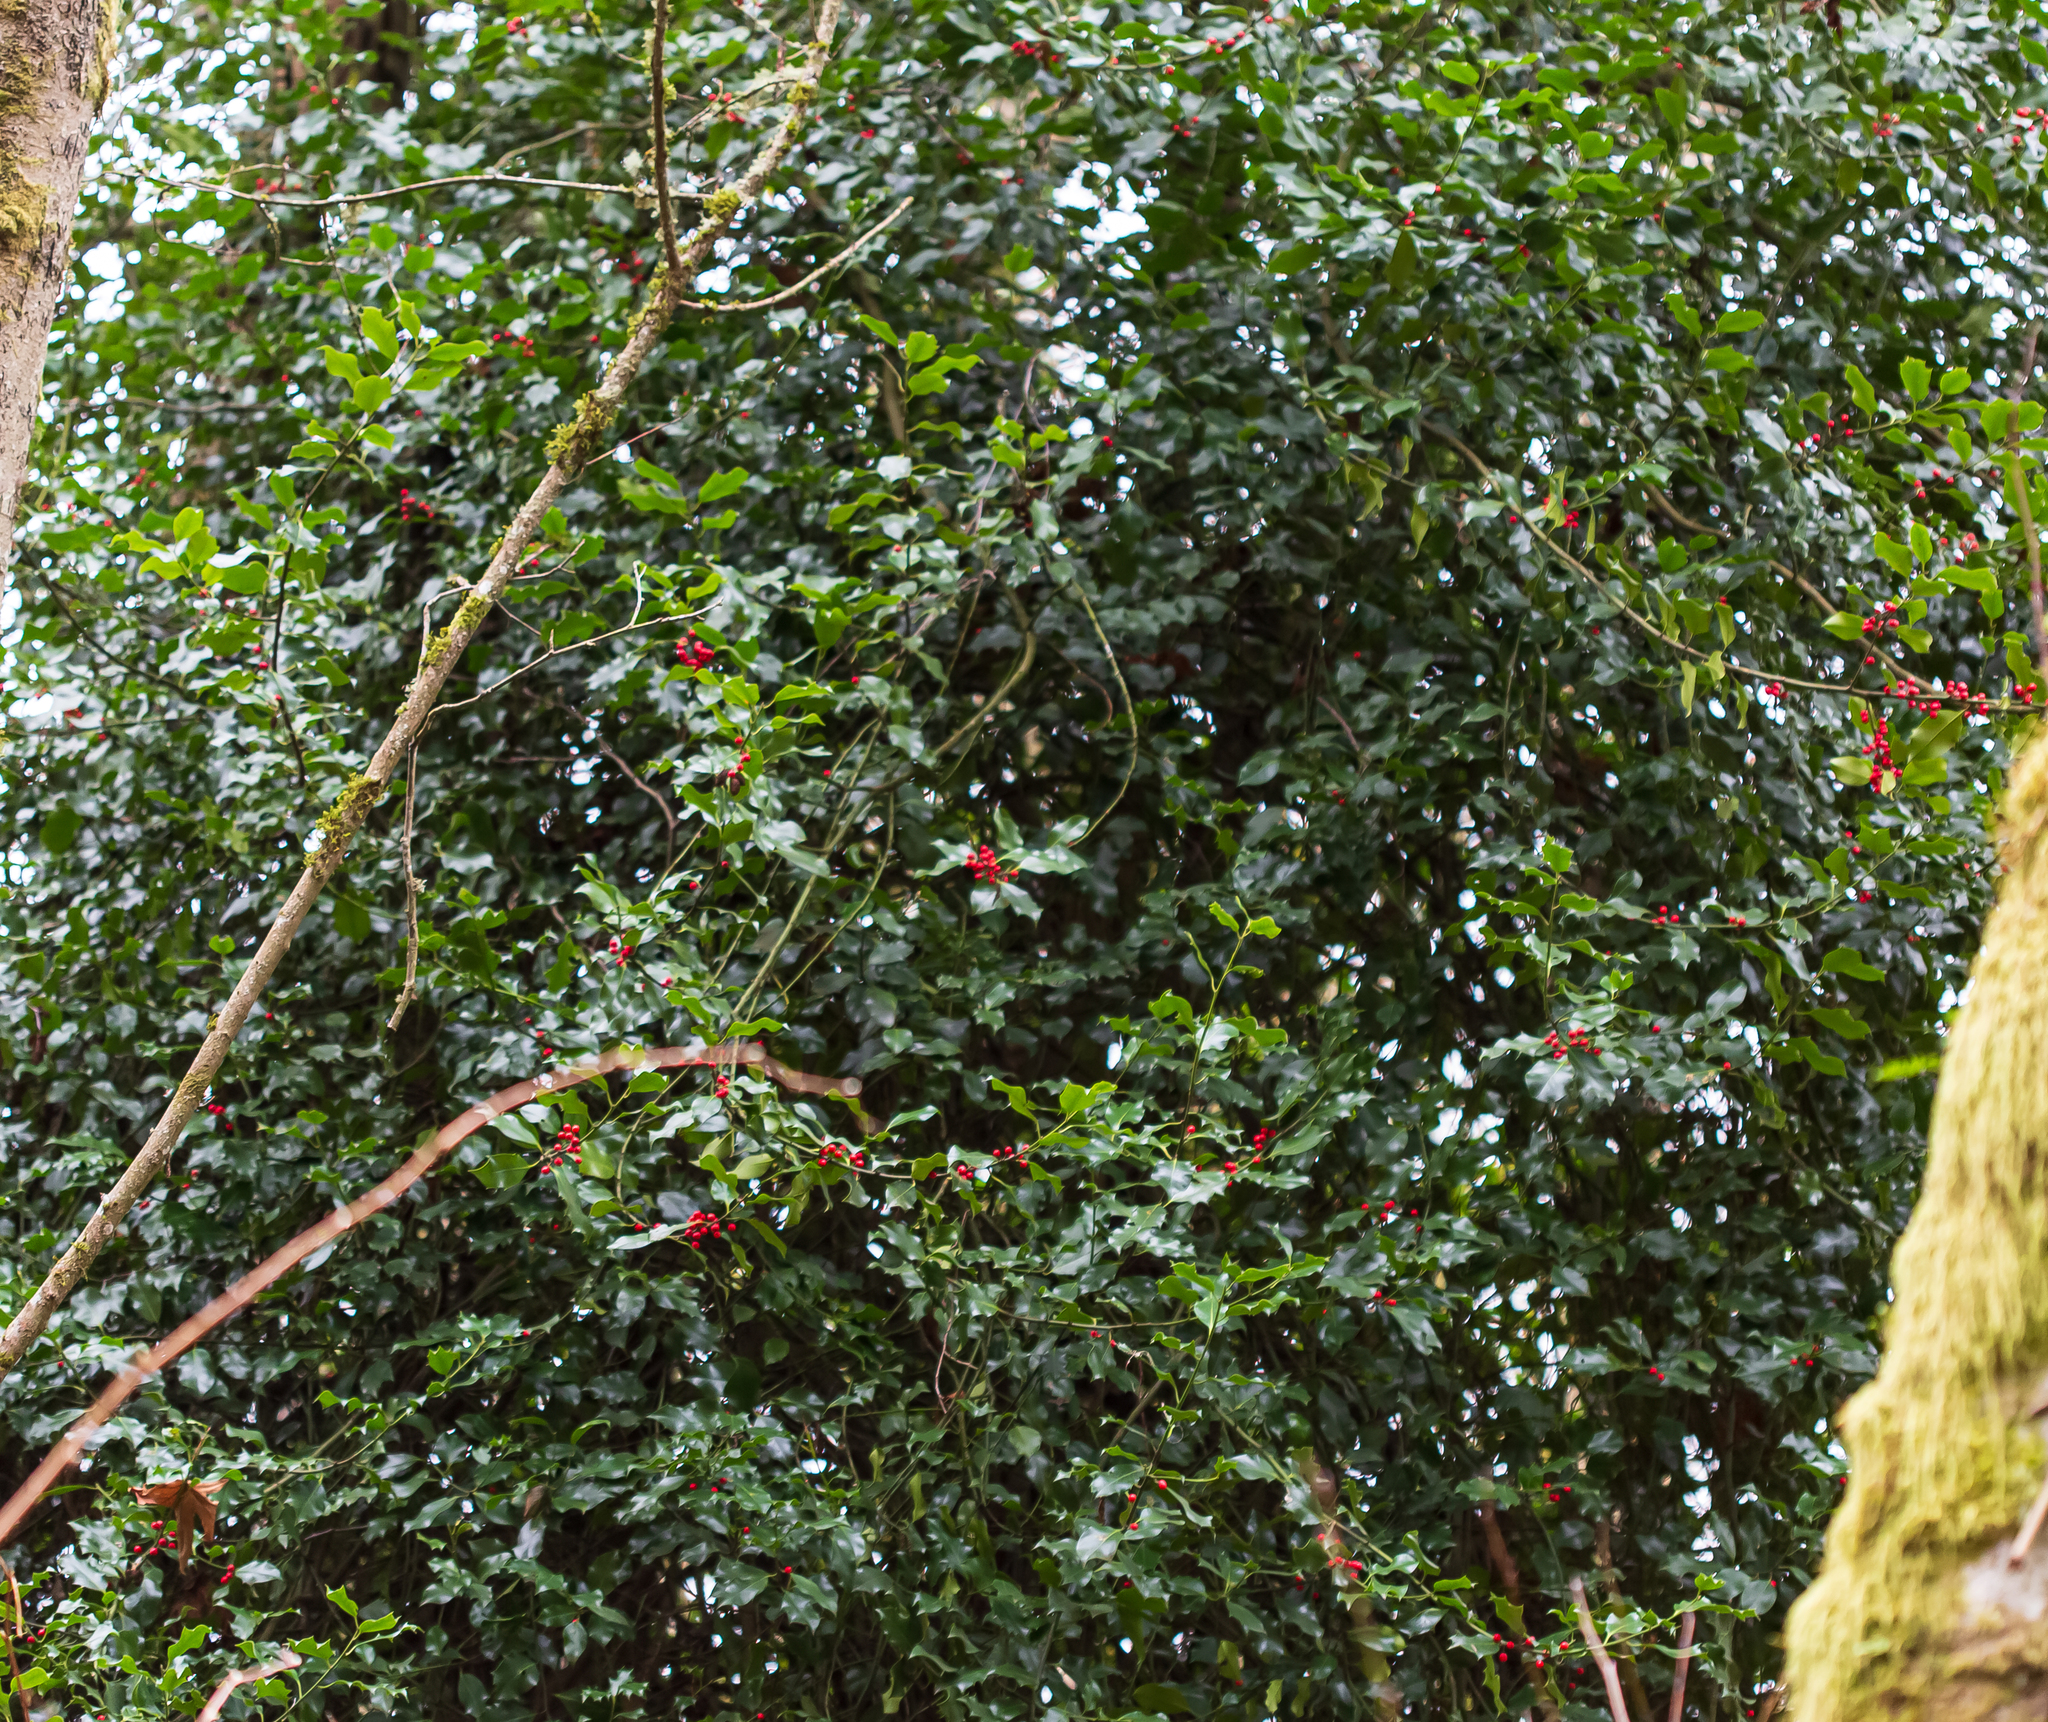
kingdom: Plantae
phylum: Tracheophyta
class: Magnoliopsida
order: Aquifoliales
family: Aquifoliaceae
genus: Ilex
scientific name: Ilex aquifolium
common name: English holly
